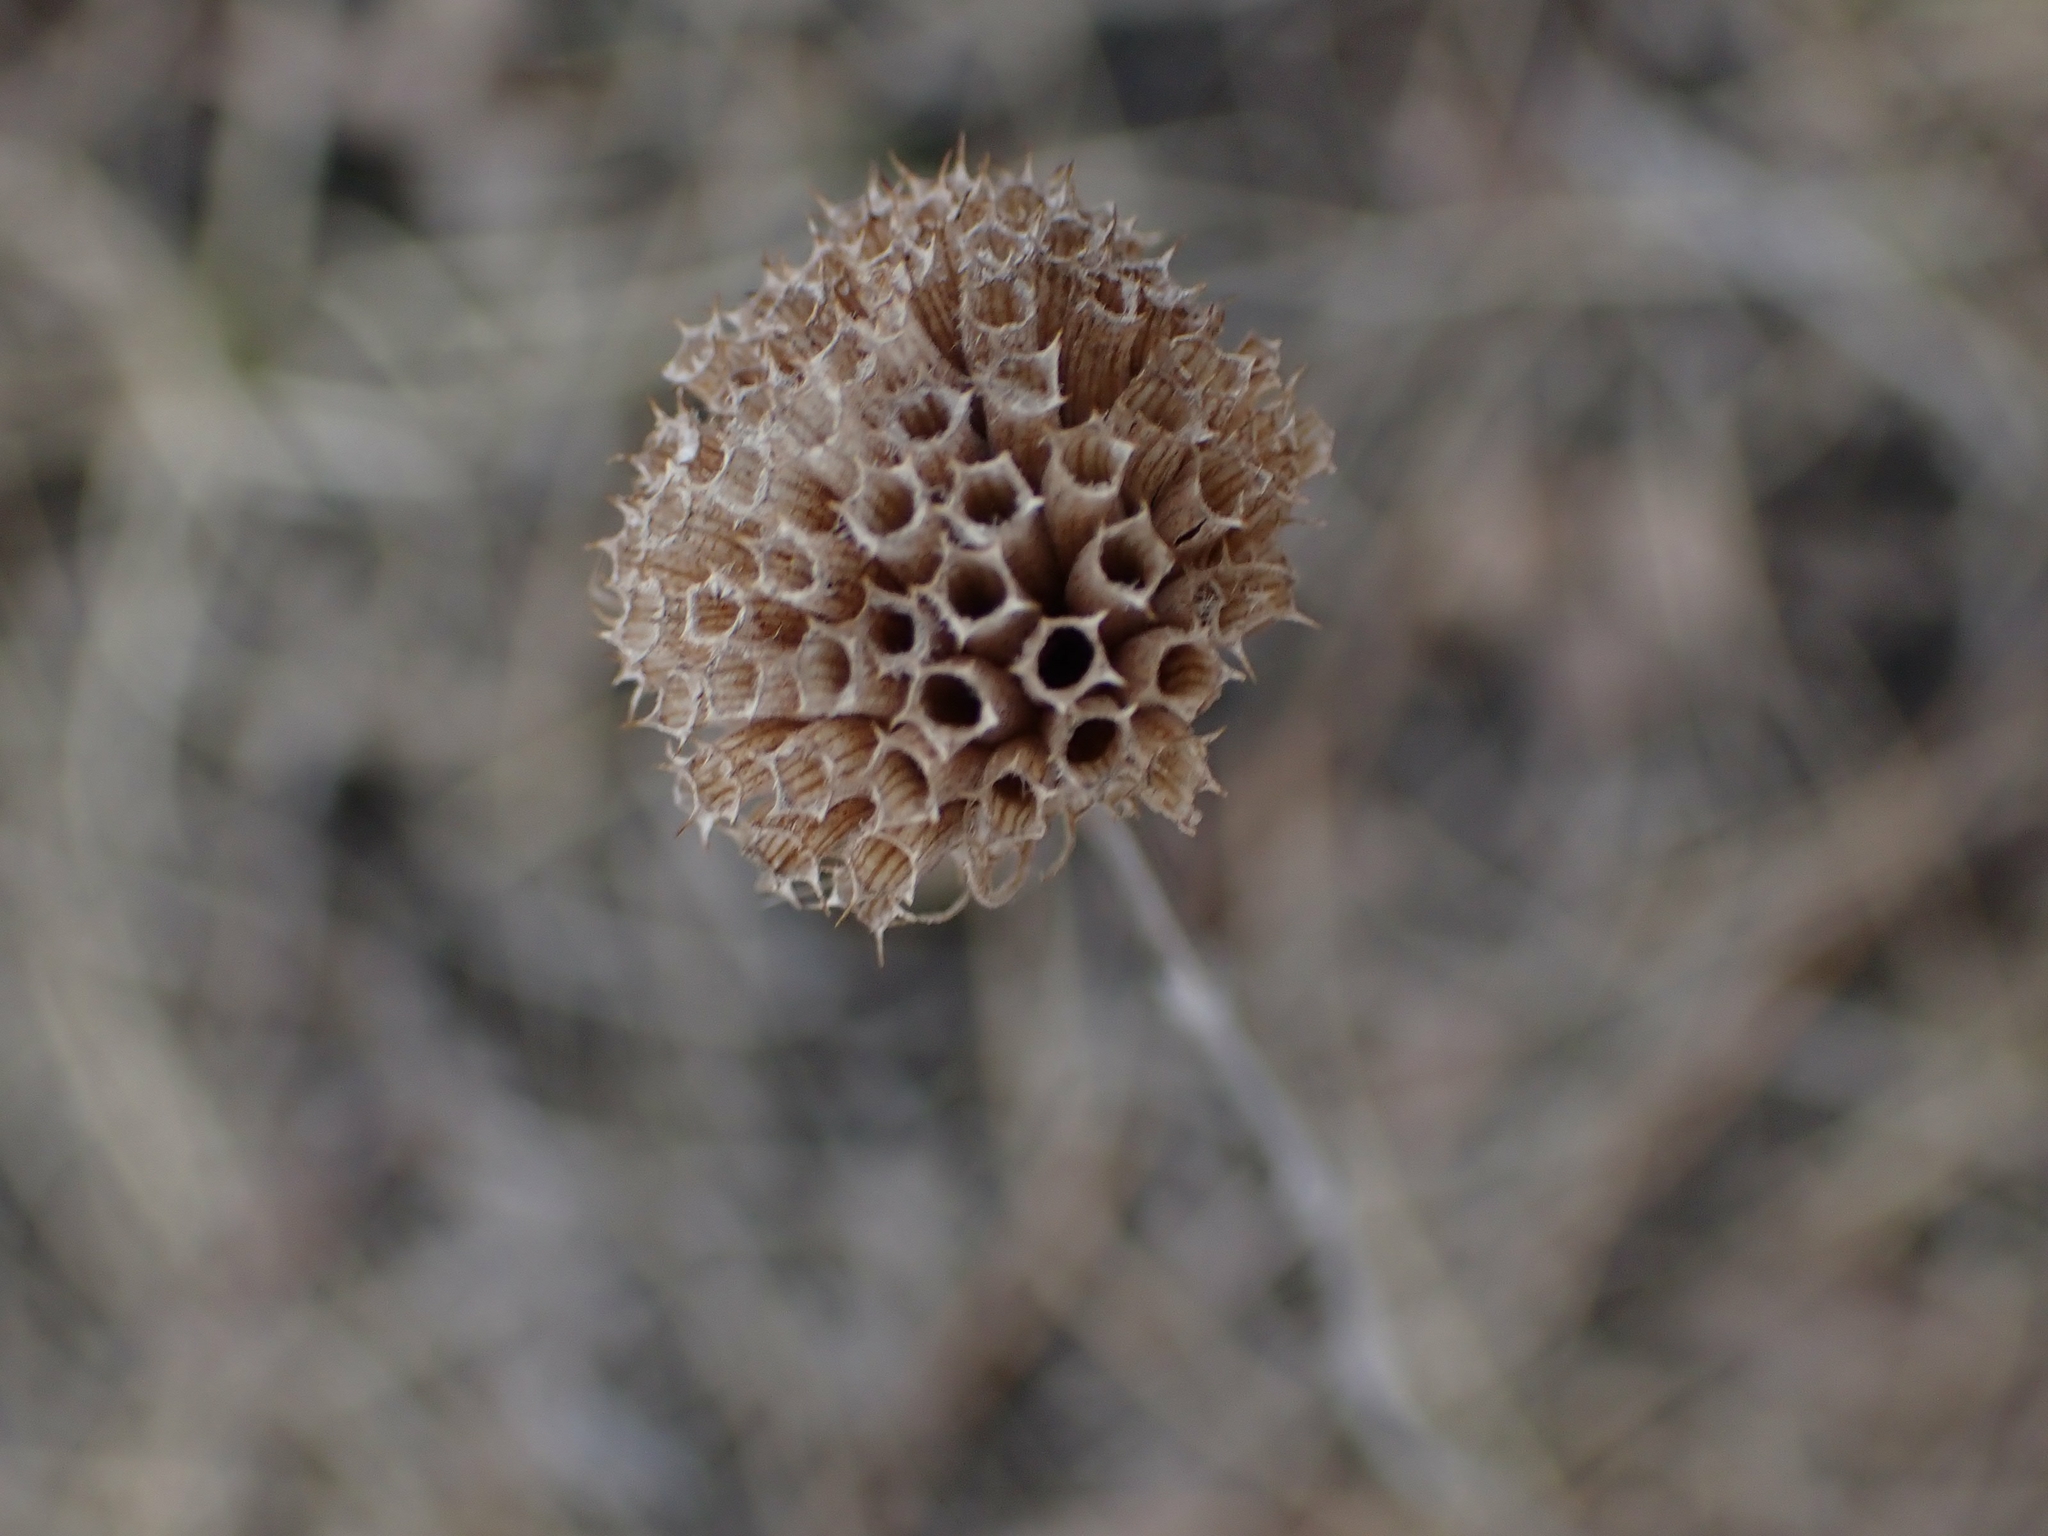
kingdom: Plantae
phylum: Tracheophyta
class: Magnoliopsida
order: Lamiales
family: Lamiaceae
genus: Monarda
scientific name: Monarda fistulosa
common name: Purple beebalm
